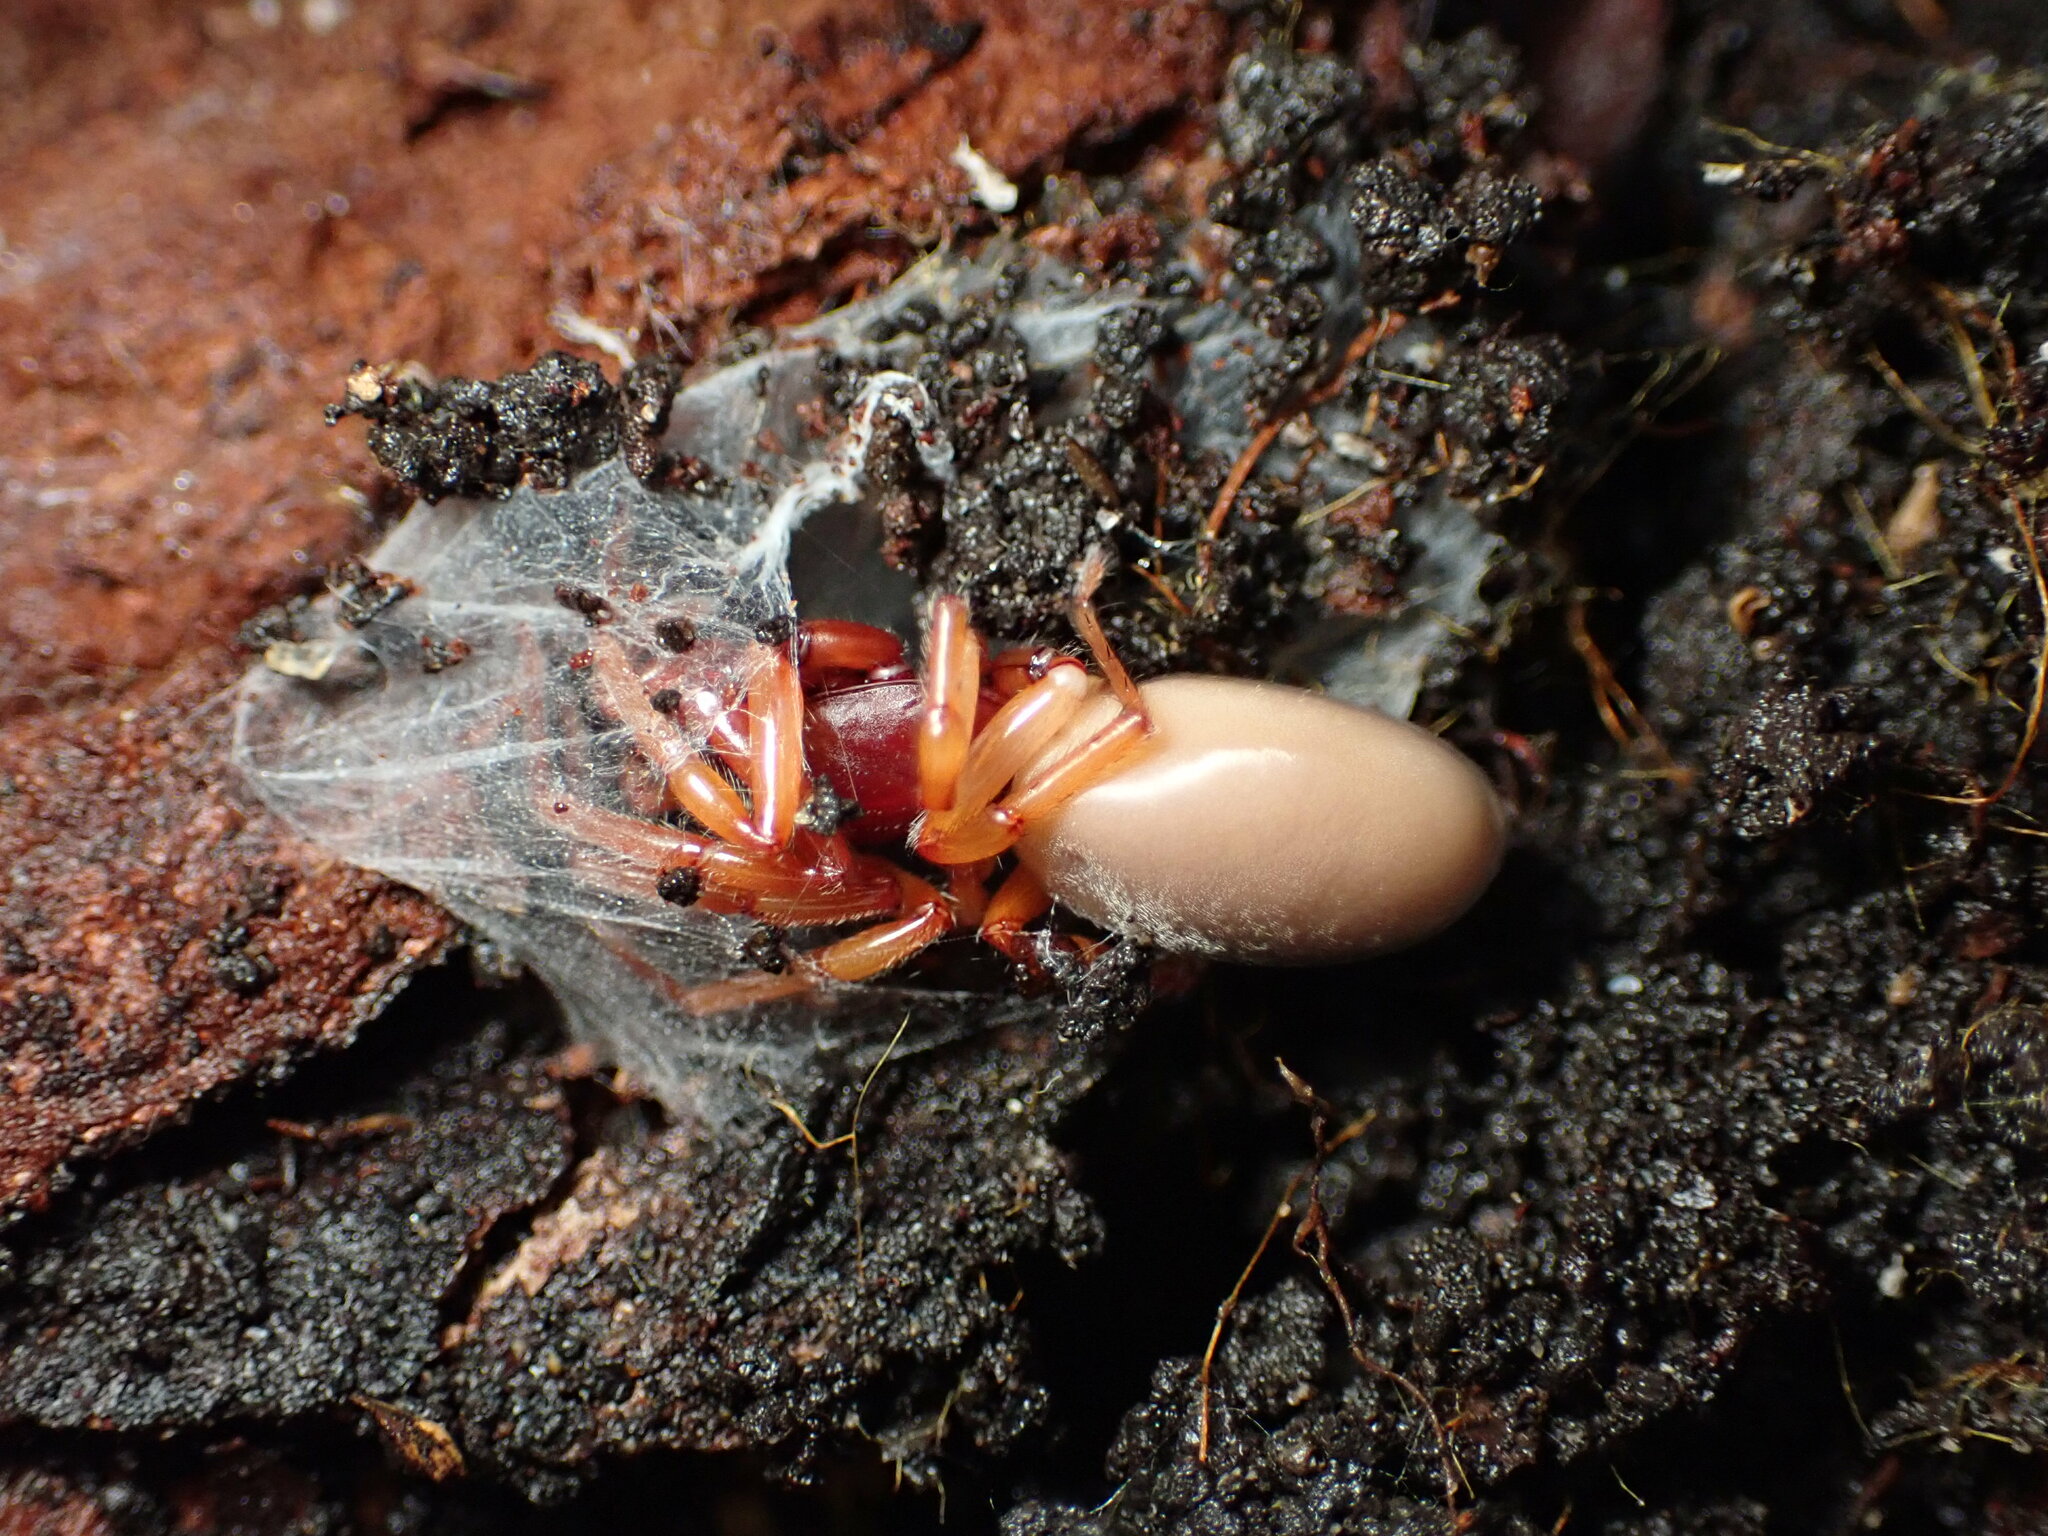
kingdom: Animalia
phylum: Arthropoda
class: Arachnida
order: Araneae
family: Dysderidae
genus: Dysdera
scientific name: Dysdera crocata
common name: Woodlouse spider
